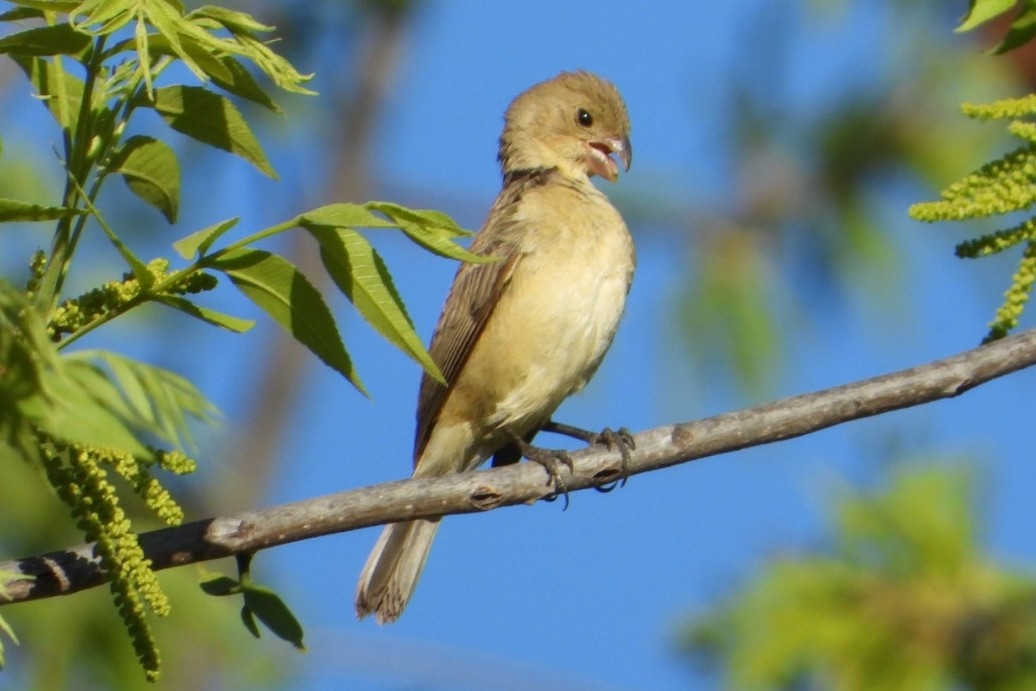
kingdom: Animalia
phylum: Chordata
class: Aves
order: Passeriformes
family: Thraupidae
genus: Sporophila
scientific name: Sporophila torqueola
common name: White-collared seedeater
